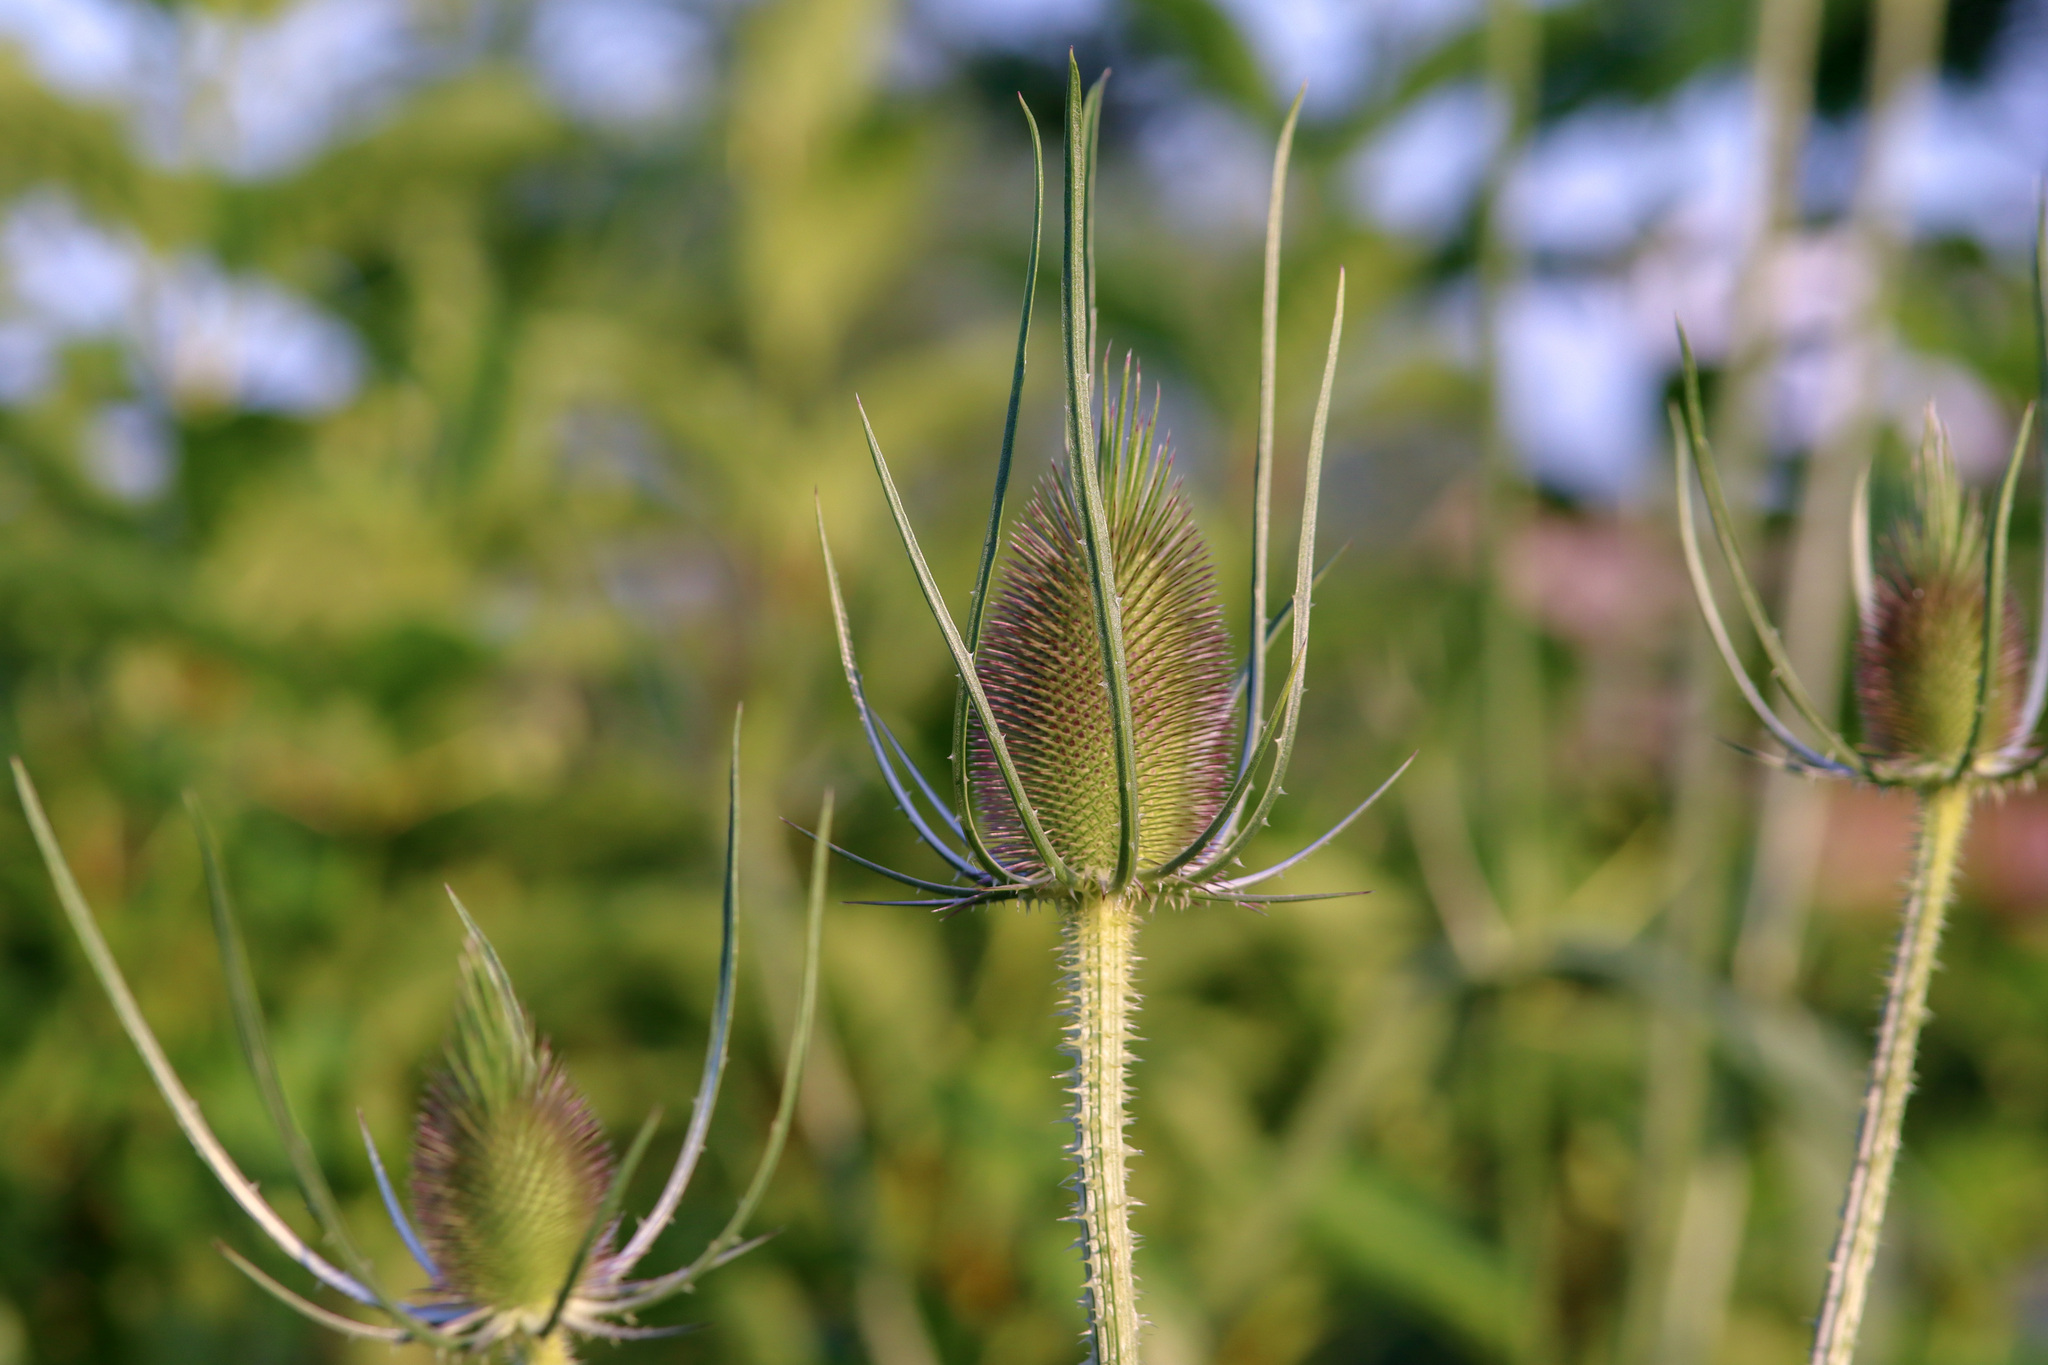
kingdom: Plantae
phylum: Tracheophyta
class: Magnoliopsida
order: Dipsacales
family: Caprifoliaceae
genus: Dipsacus
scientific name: Dipsacus fullonum
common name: Teasel
